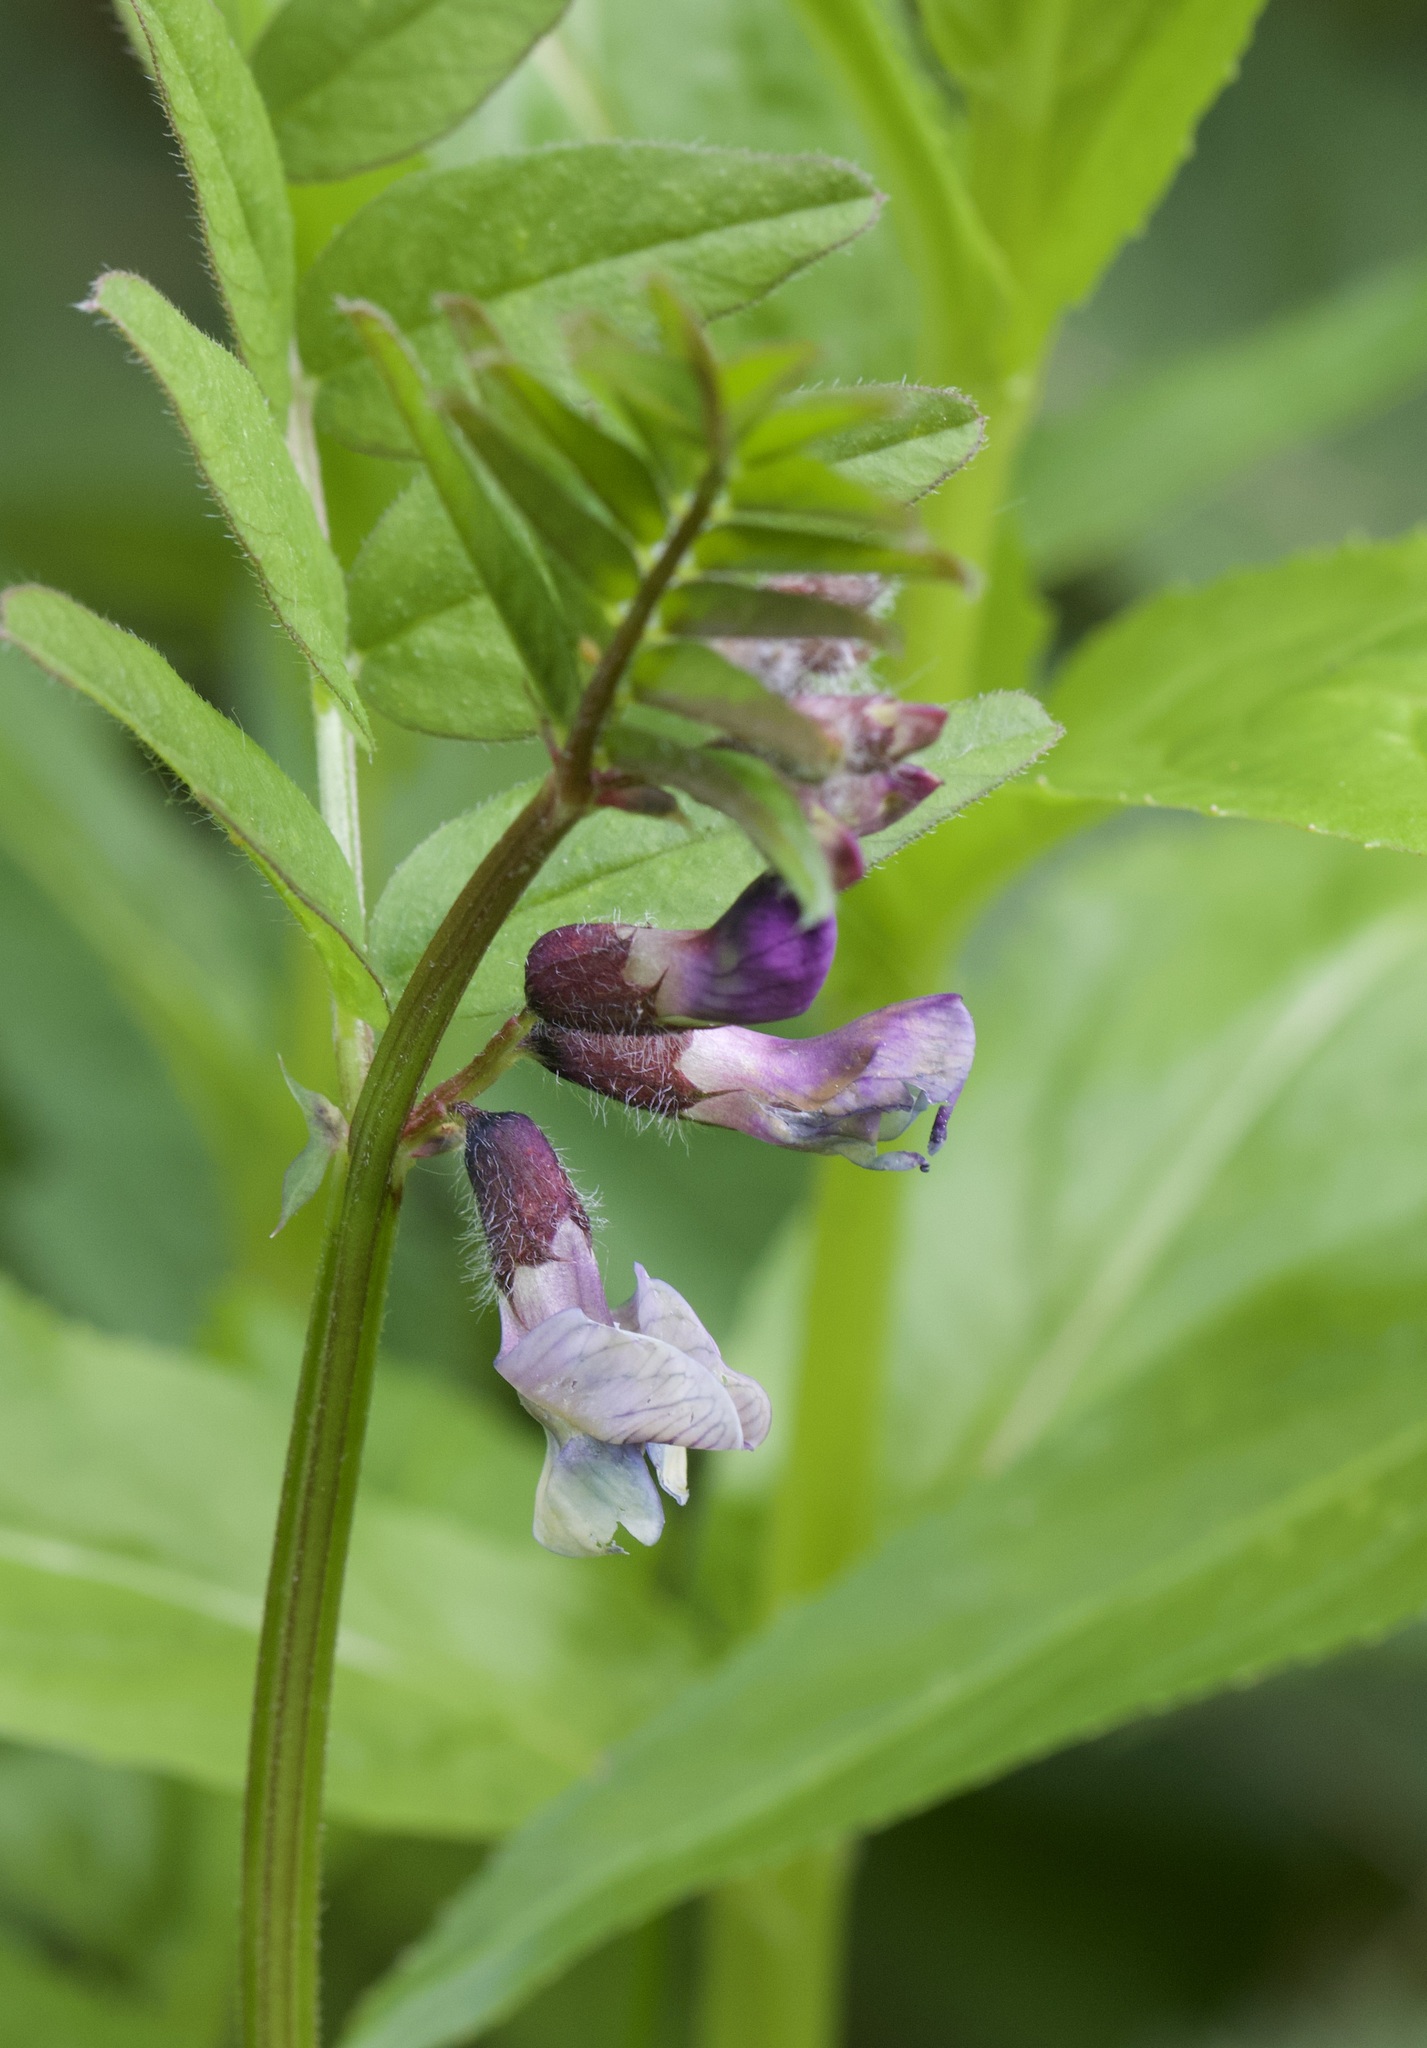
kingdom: Plantae
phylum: Tracheophyta
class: Magnoliopsida
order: Fabales
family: Fabaceae
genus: Vicia
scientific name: Vicia sepium
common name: Bush vetch
